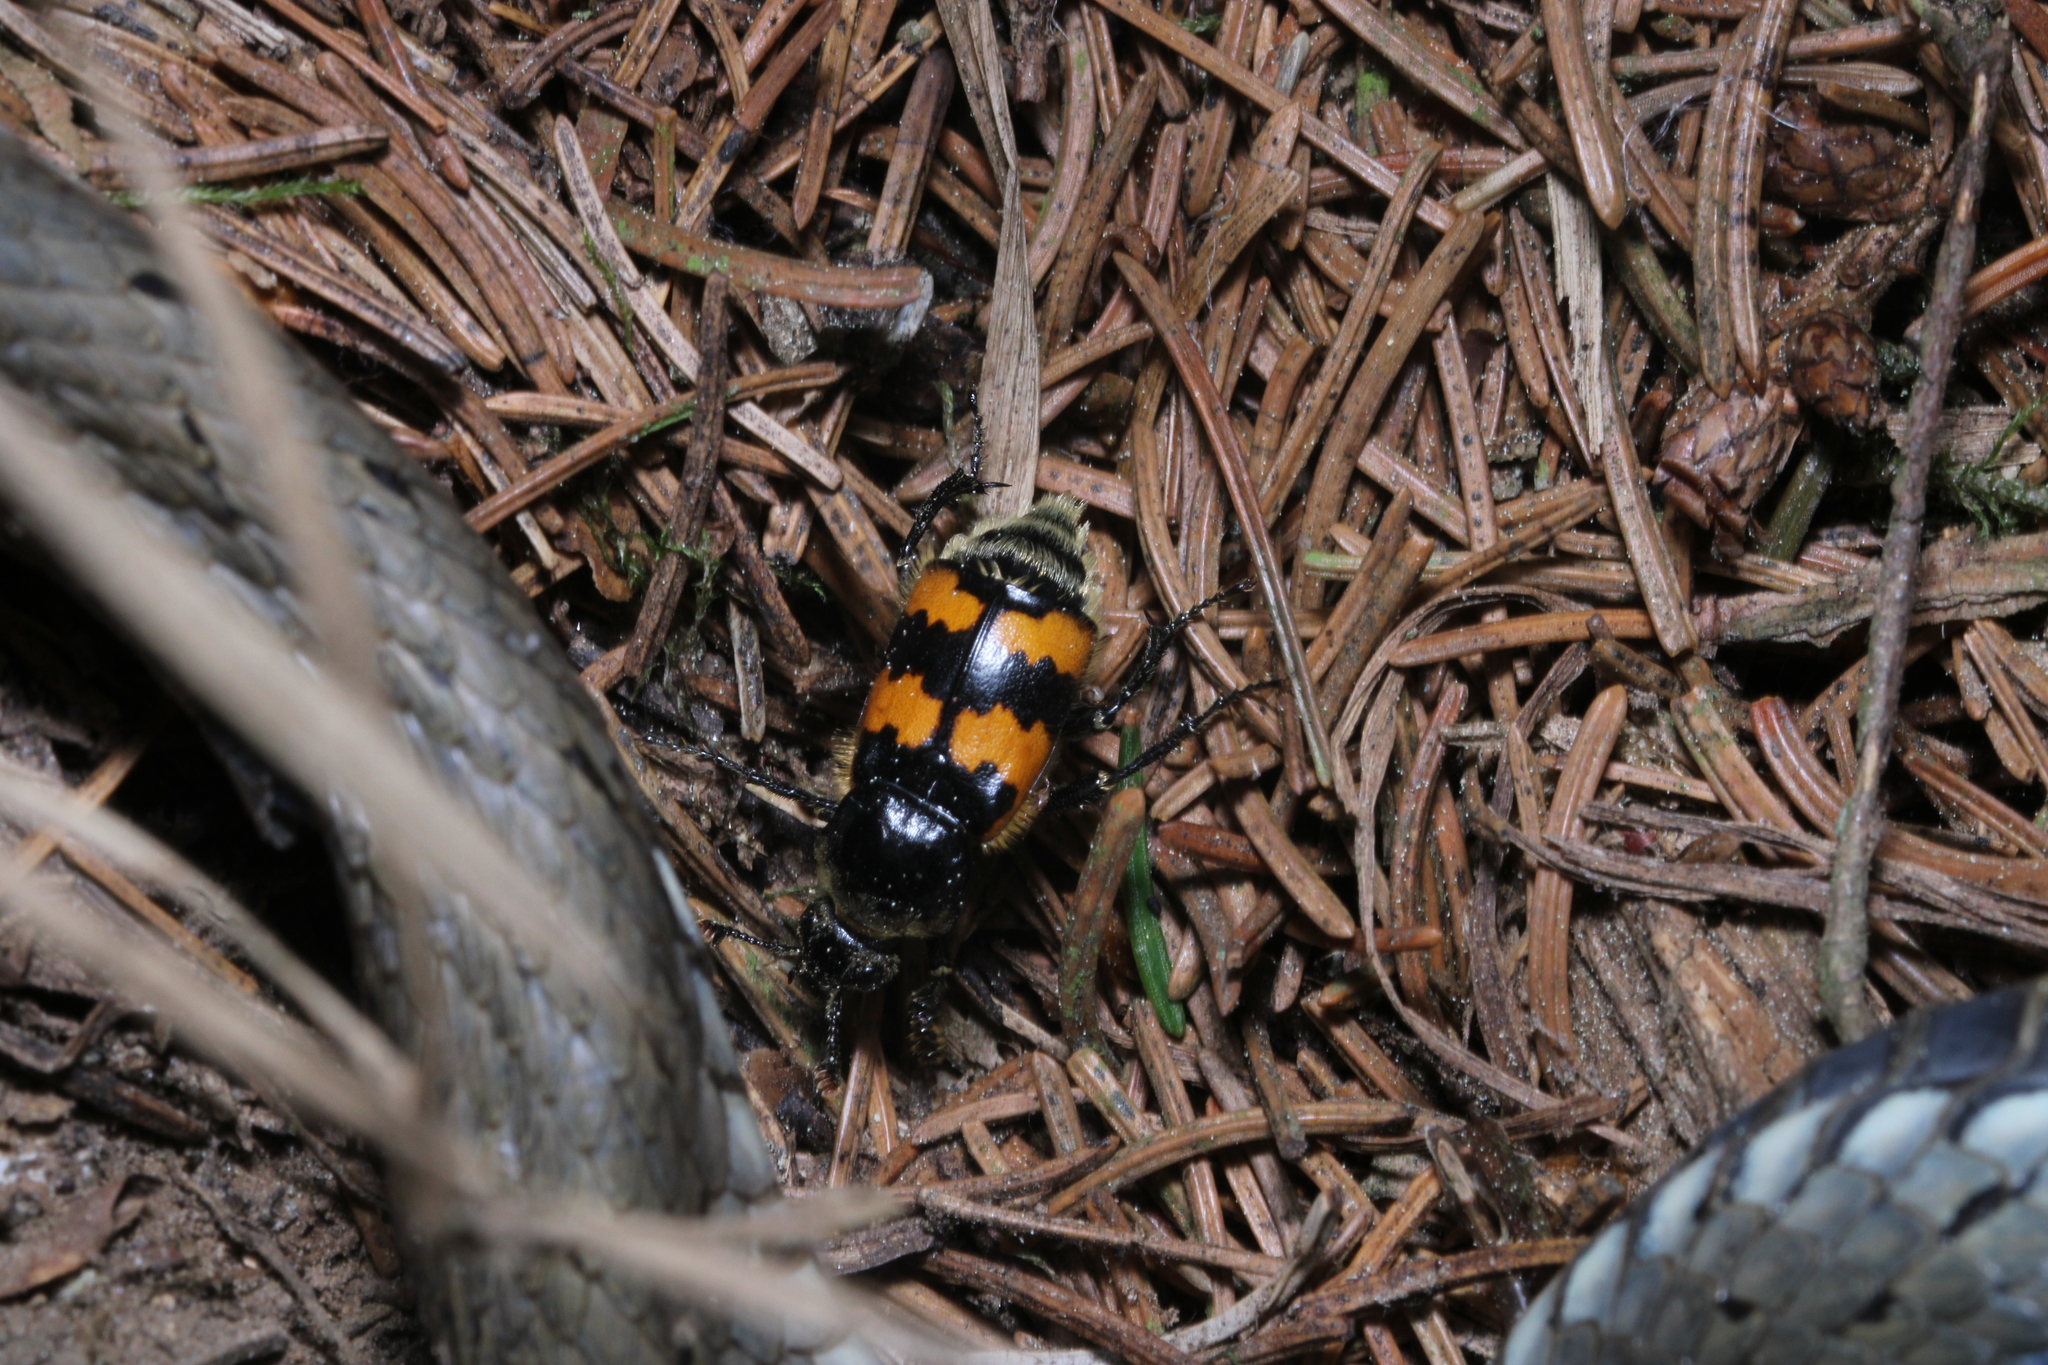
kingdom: Animalia
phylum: Arthropoda
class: Insecta
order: Coleoptera
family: Staphylinidae
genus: Nicrophorus
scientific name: Nicrophorus vespillo
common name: Common burying beetle
